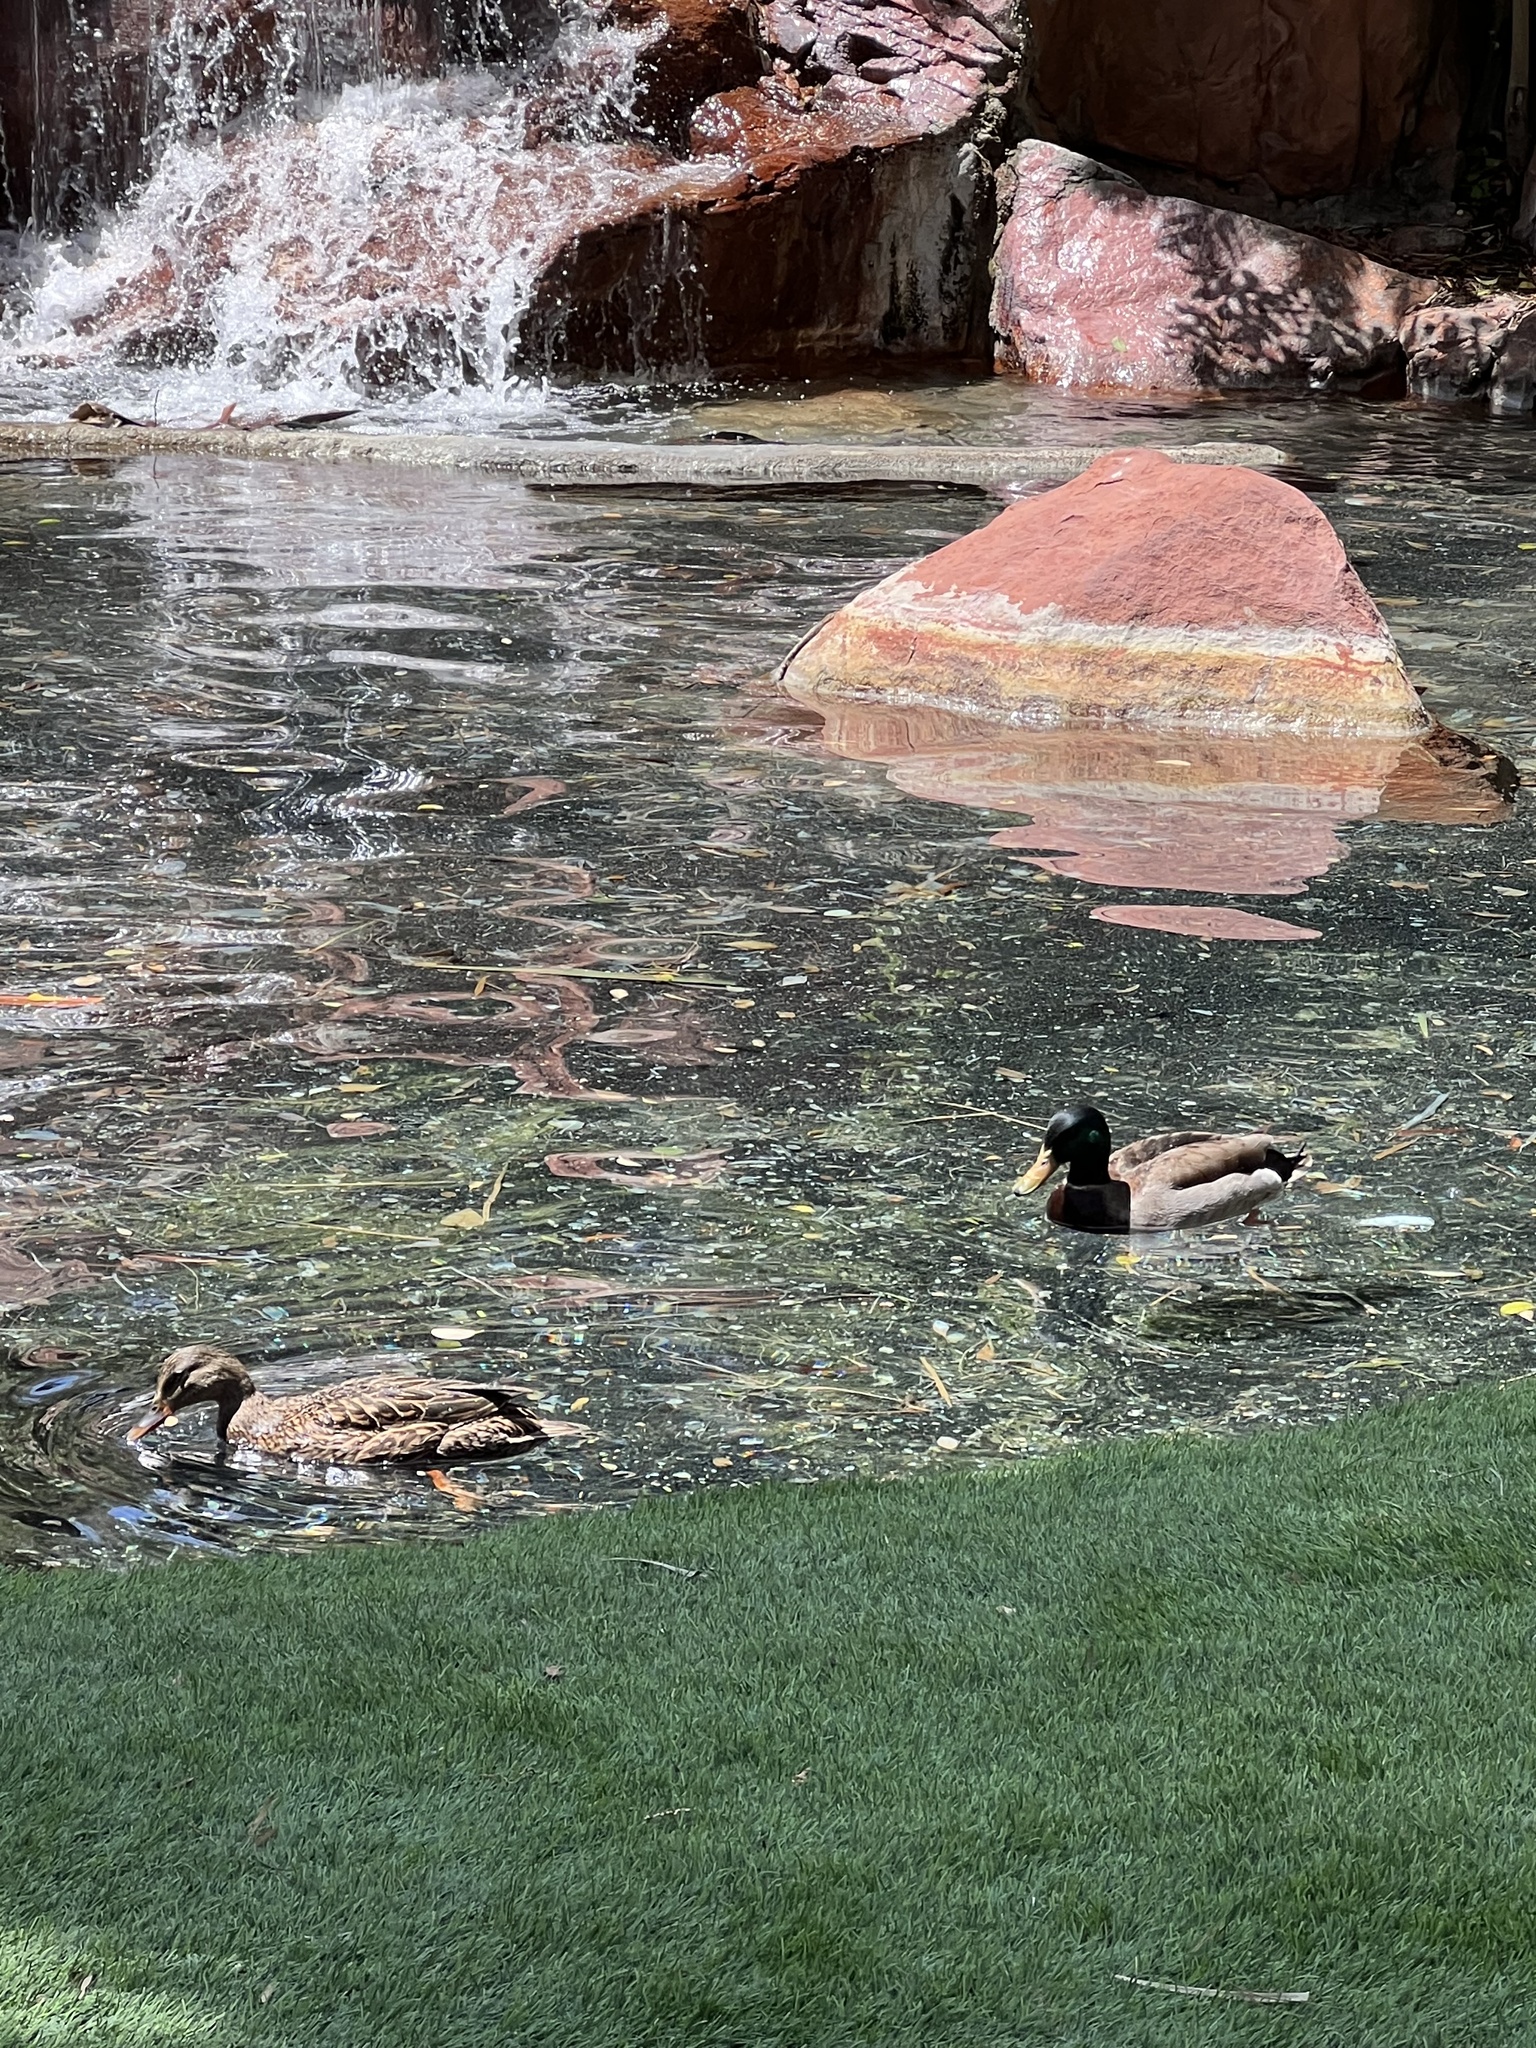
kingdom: Animalia
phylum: Chordata
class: Aves
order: Anseriformes
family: Anatidae
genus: Anas
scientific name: Anas platyrhynchos
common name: Mallard
